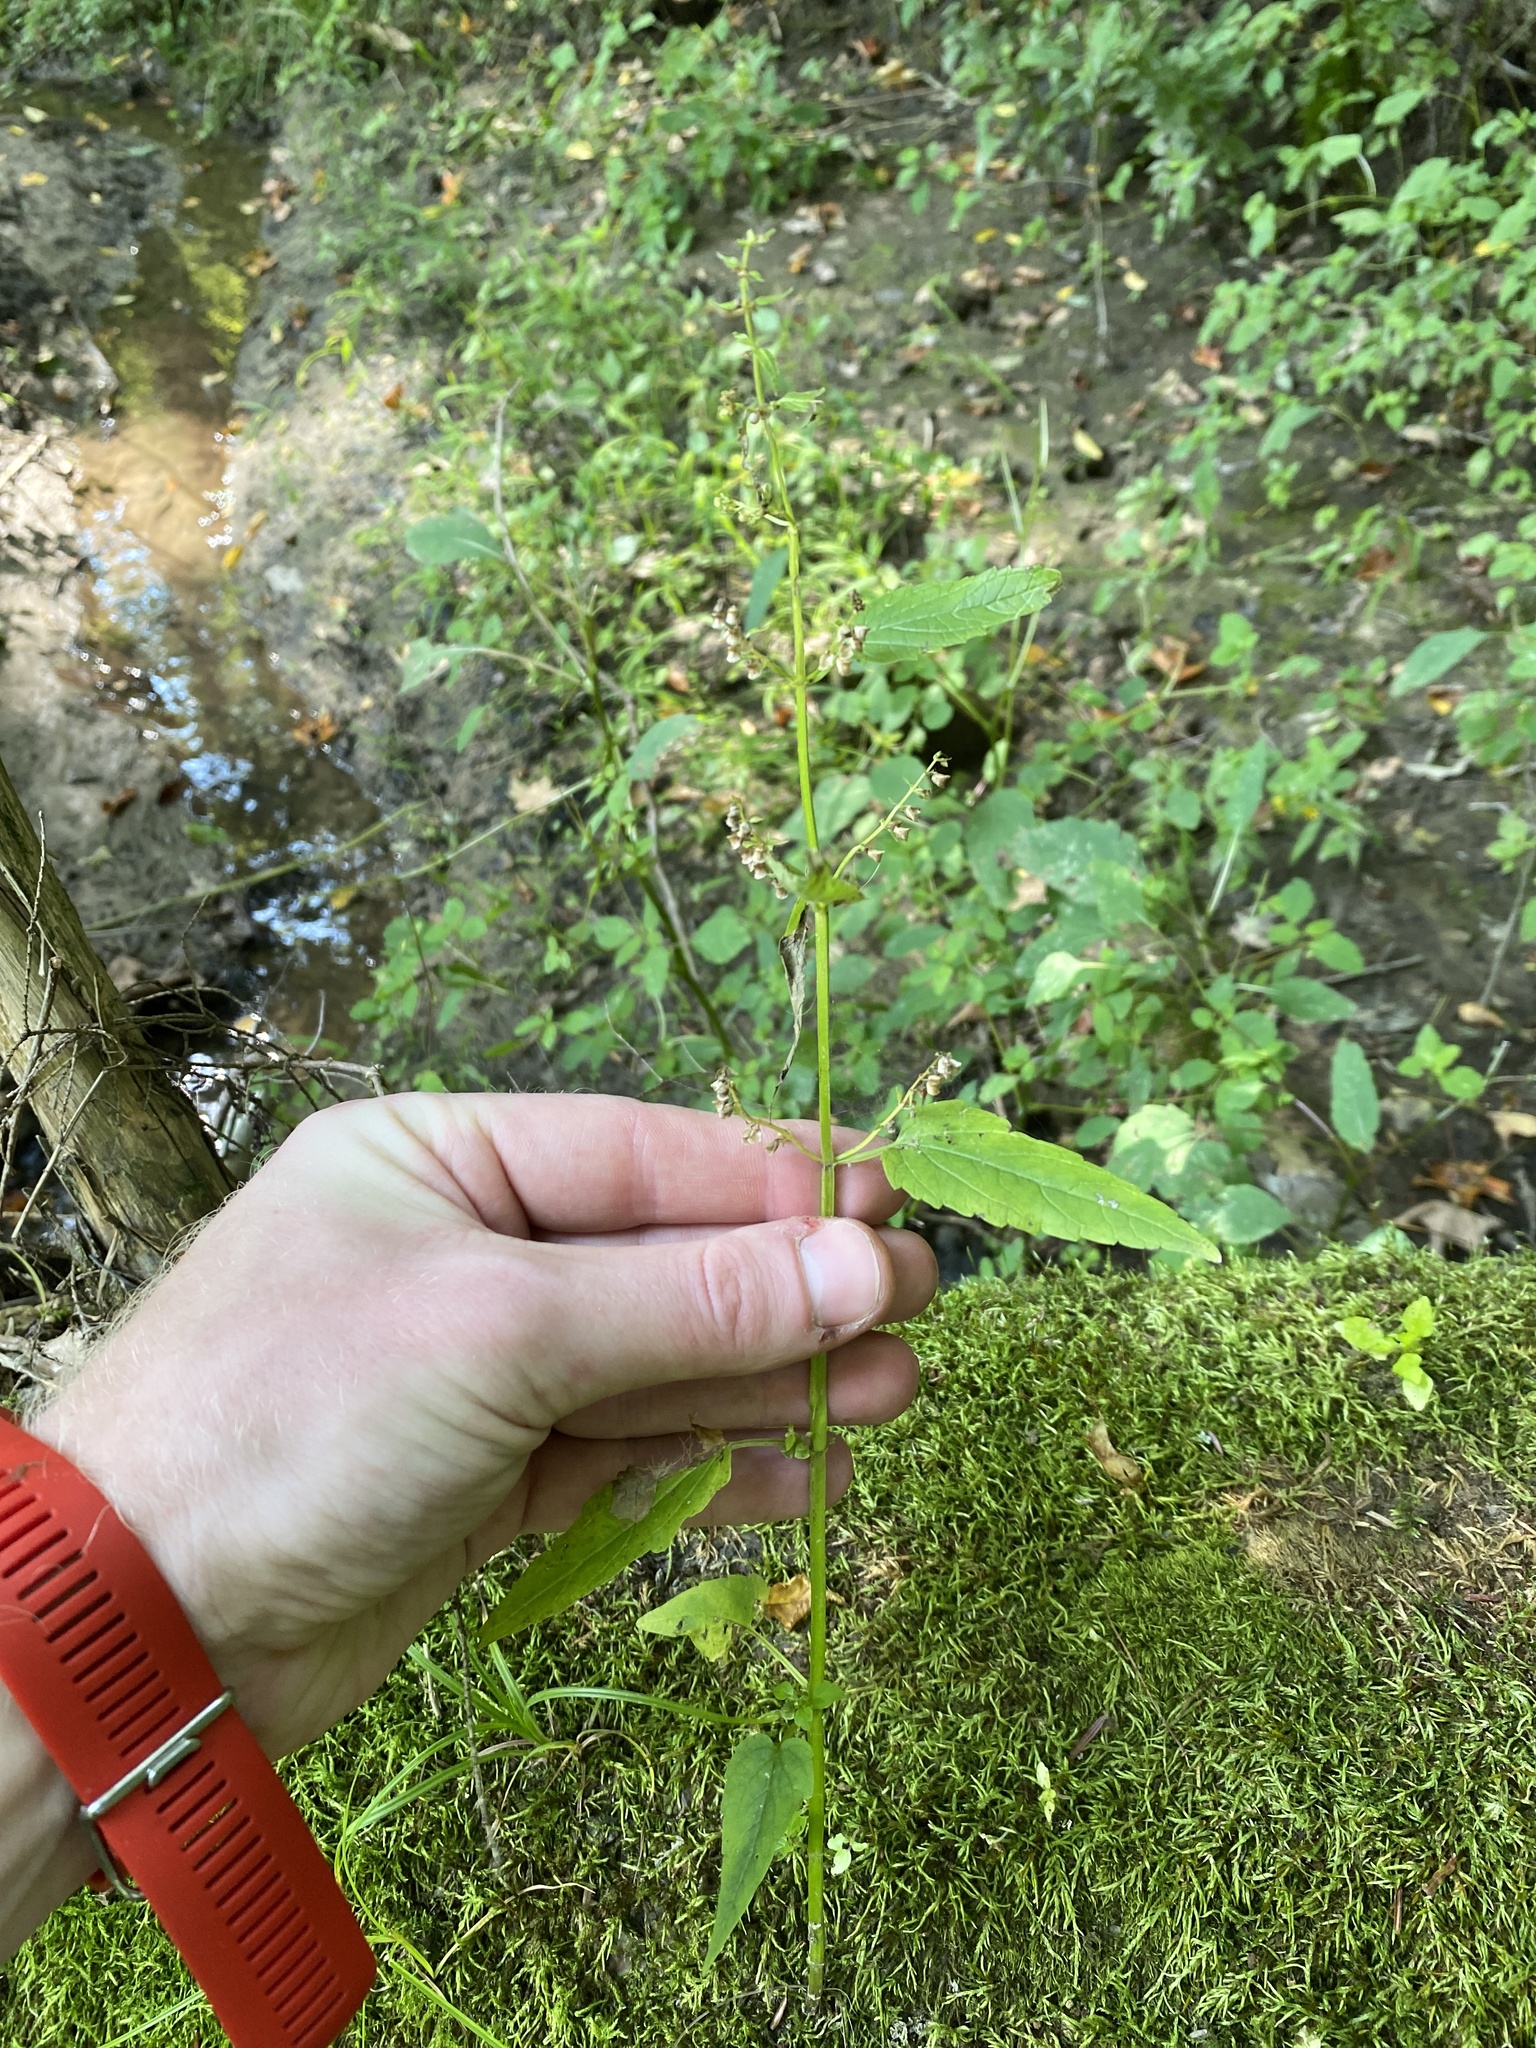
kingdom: Plantae
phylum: Tracheophyta
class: Magnoliopsida
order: Lamiales
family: Lamiaceae
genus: Scutellaria
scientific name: Scutellaria lateriflora
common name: Blue skullcap
